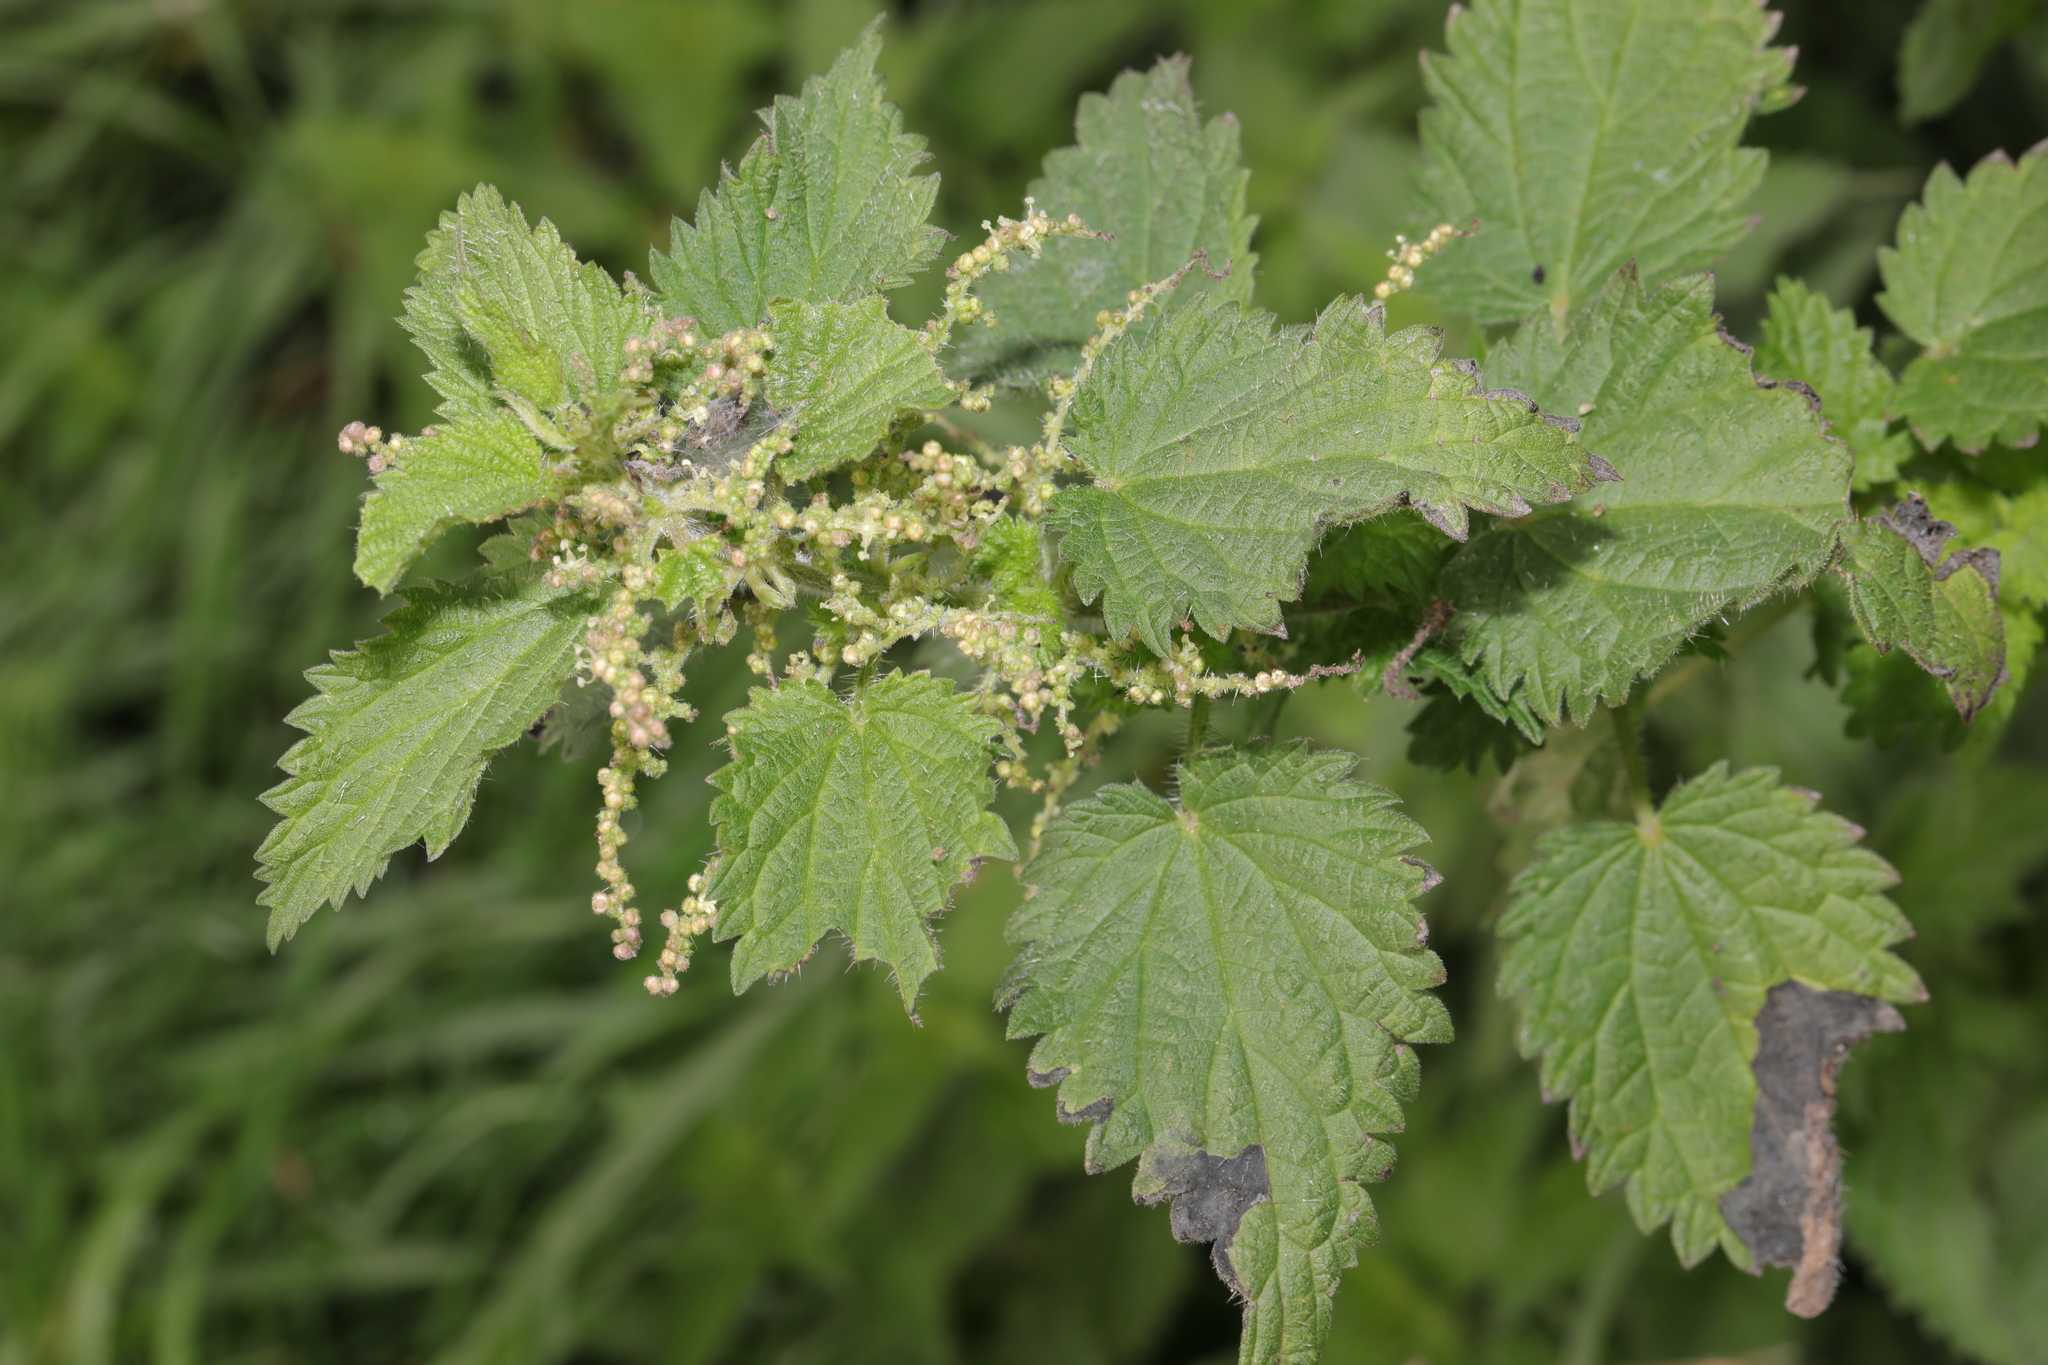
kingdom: Plantae
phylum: Tracheophyta
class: Magnoliopsida
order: Rosales
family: Urticaceae
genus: Urtica
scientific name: Urtica dioica
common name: Common nettle
